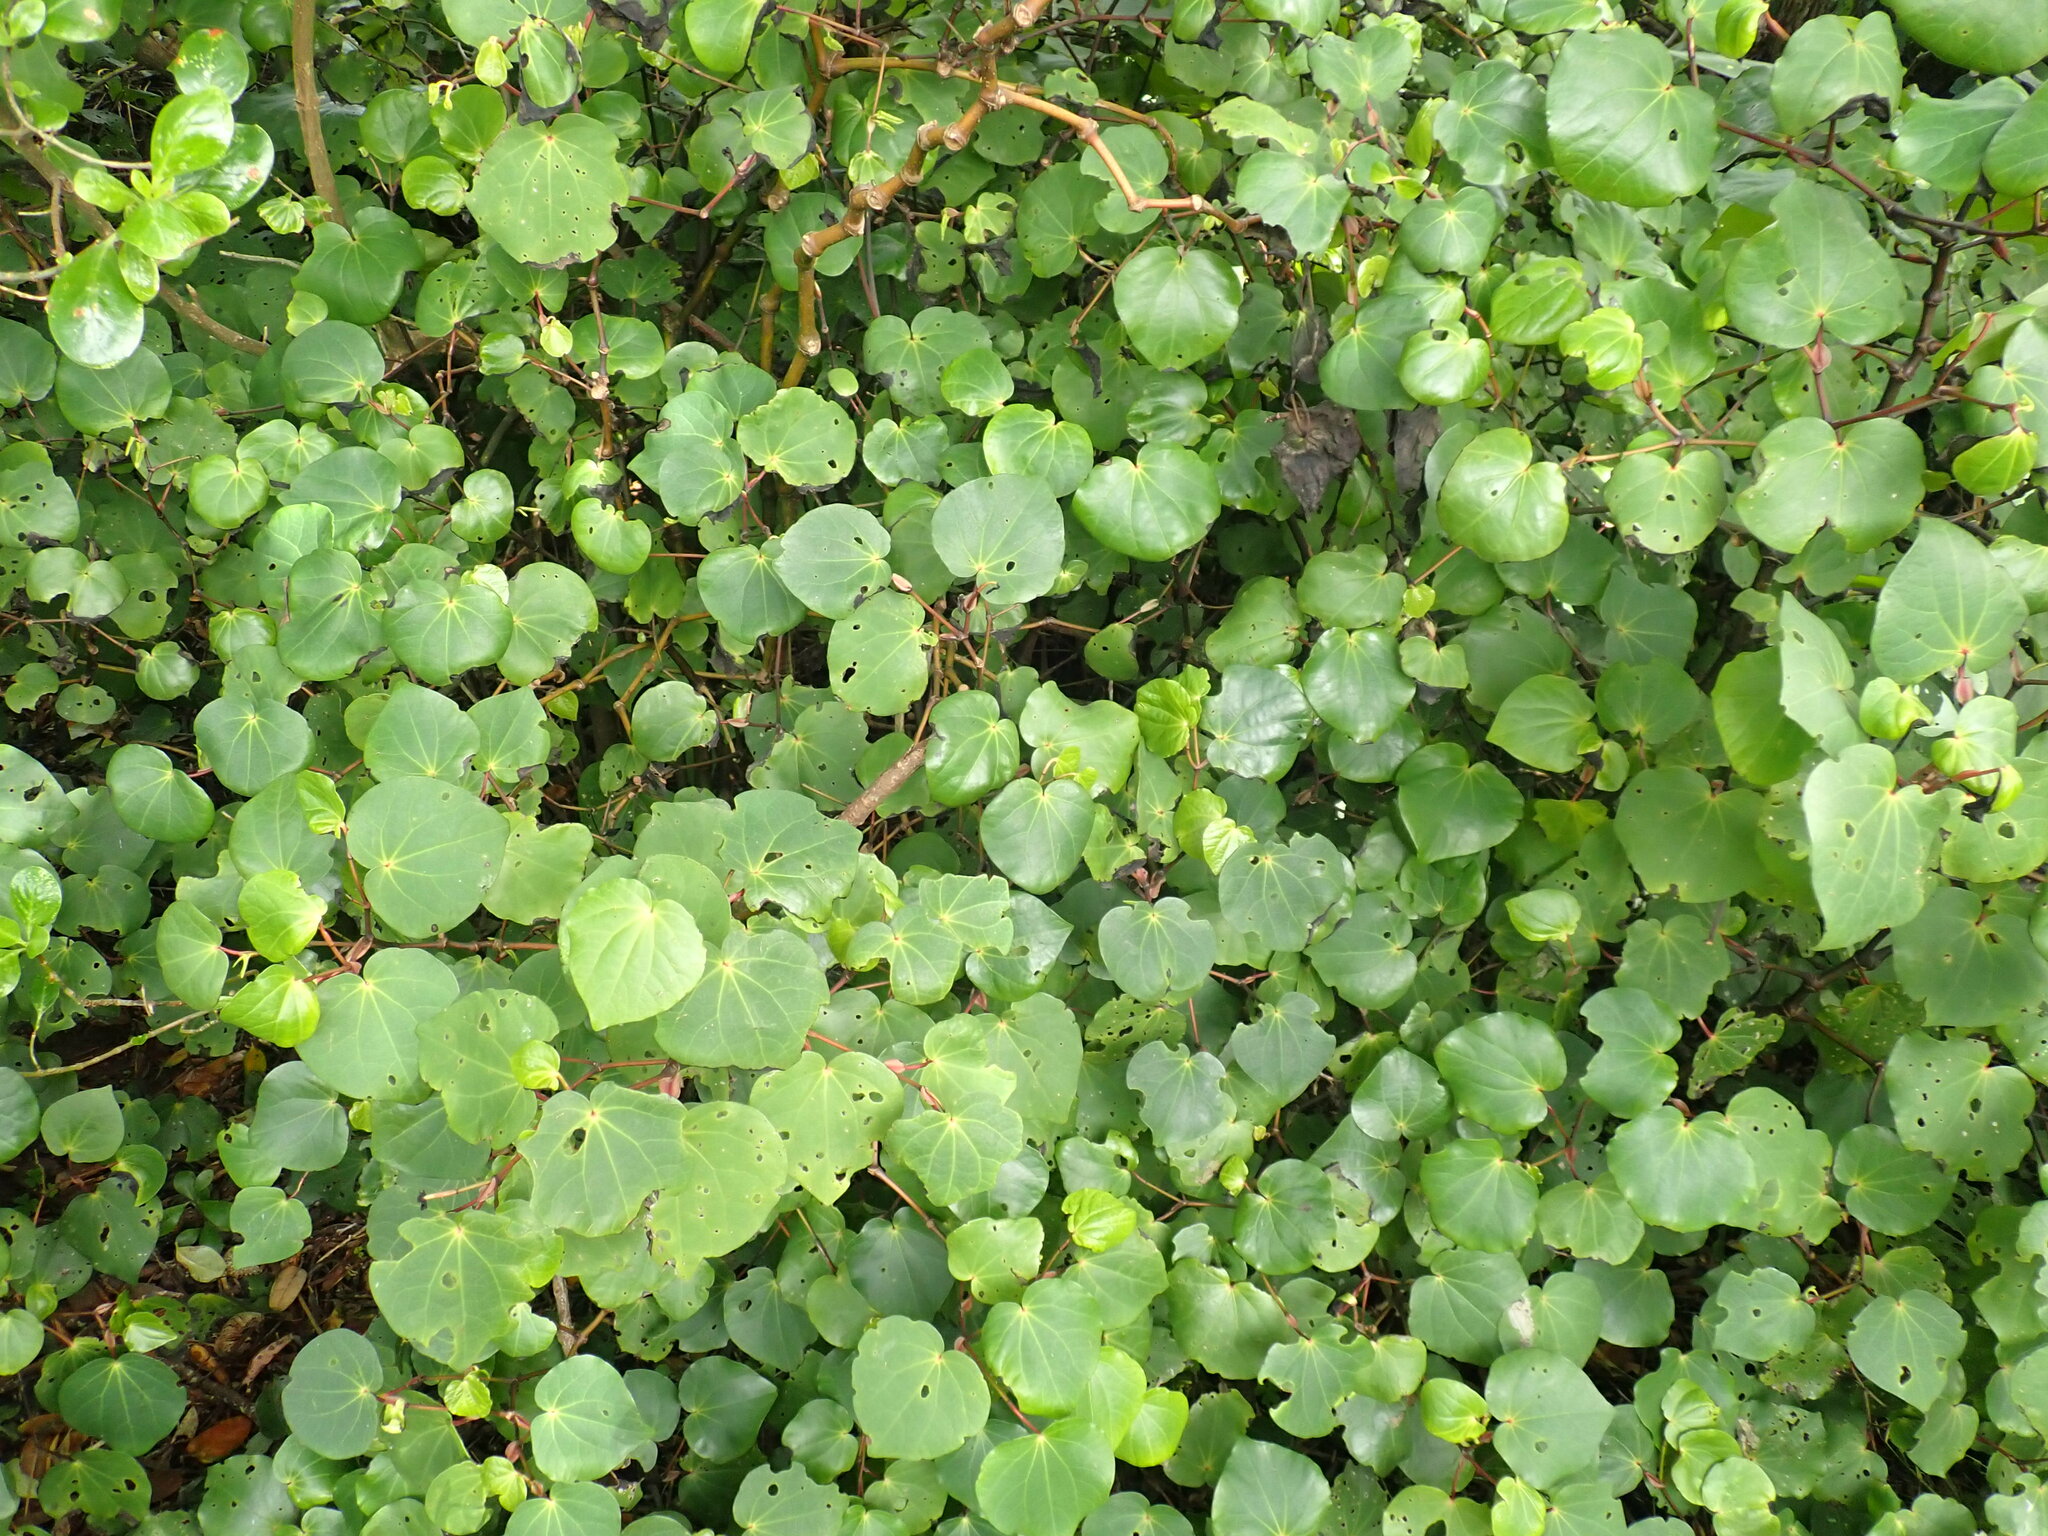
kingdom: Plantae
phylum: Tracheophyta
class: Magnoliopsida
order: Piperales
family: Piperaceae
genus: Macropiper
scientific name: Macropiper excelsum
